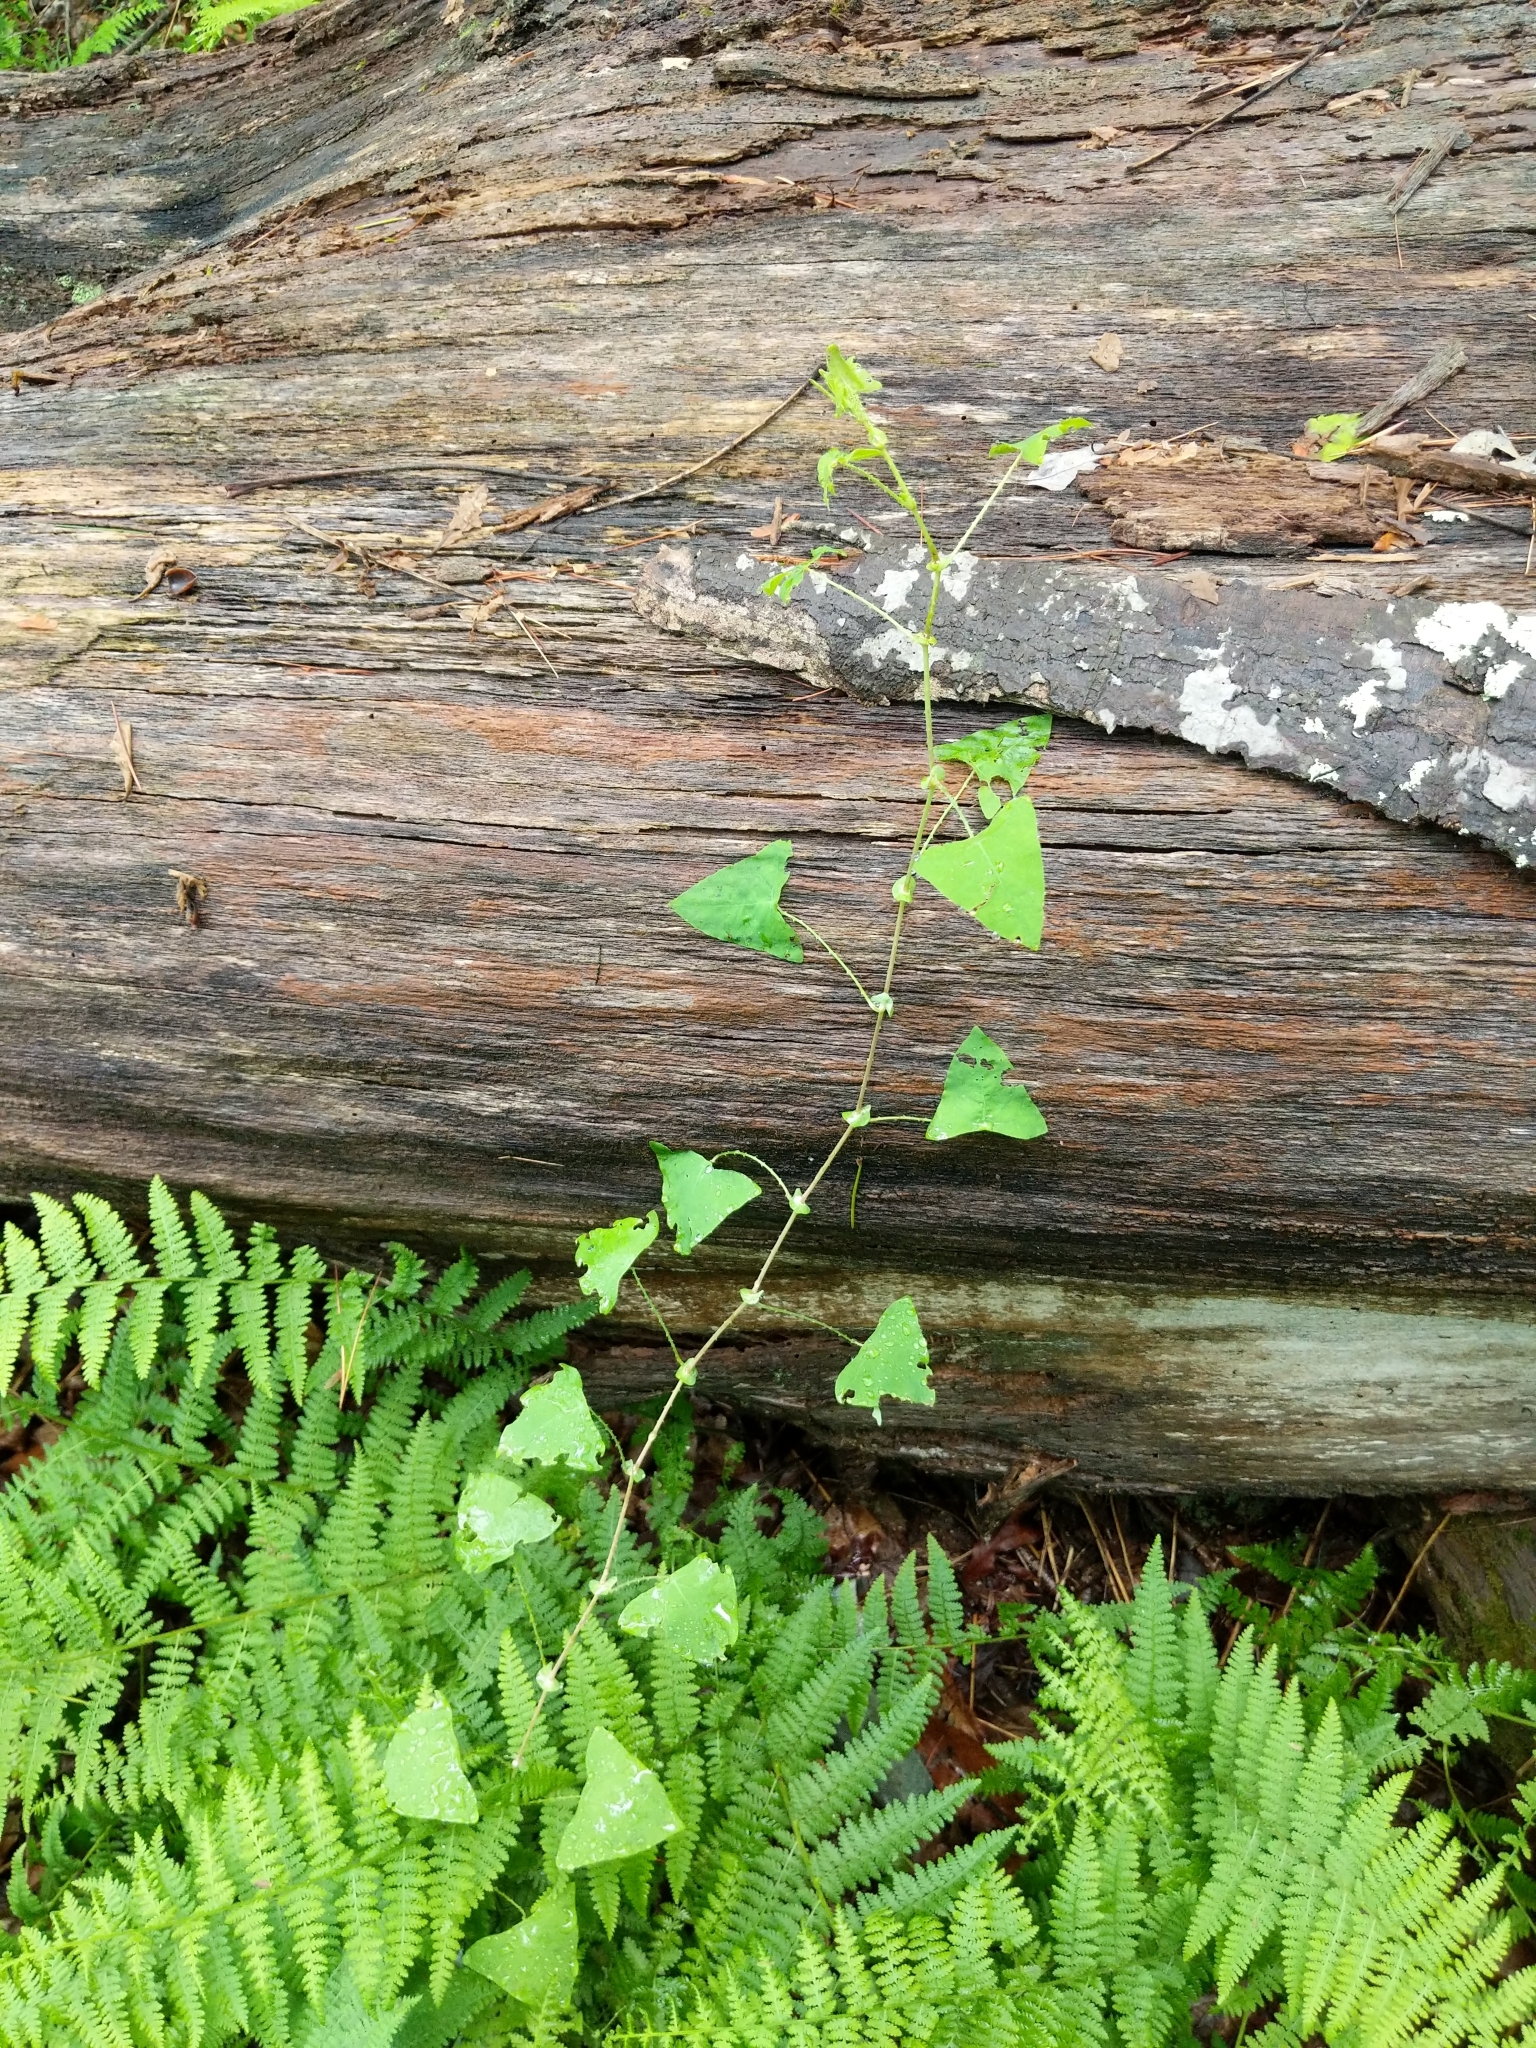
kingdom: Plantae
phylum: Tracheophyta
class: Magnoliopsida
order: Caryophyllales
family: Polygonaceae
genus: Persicaria
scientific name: Persicaria perfoliata
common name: Asiatic tearthumb
